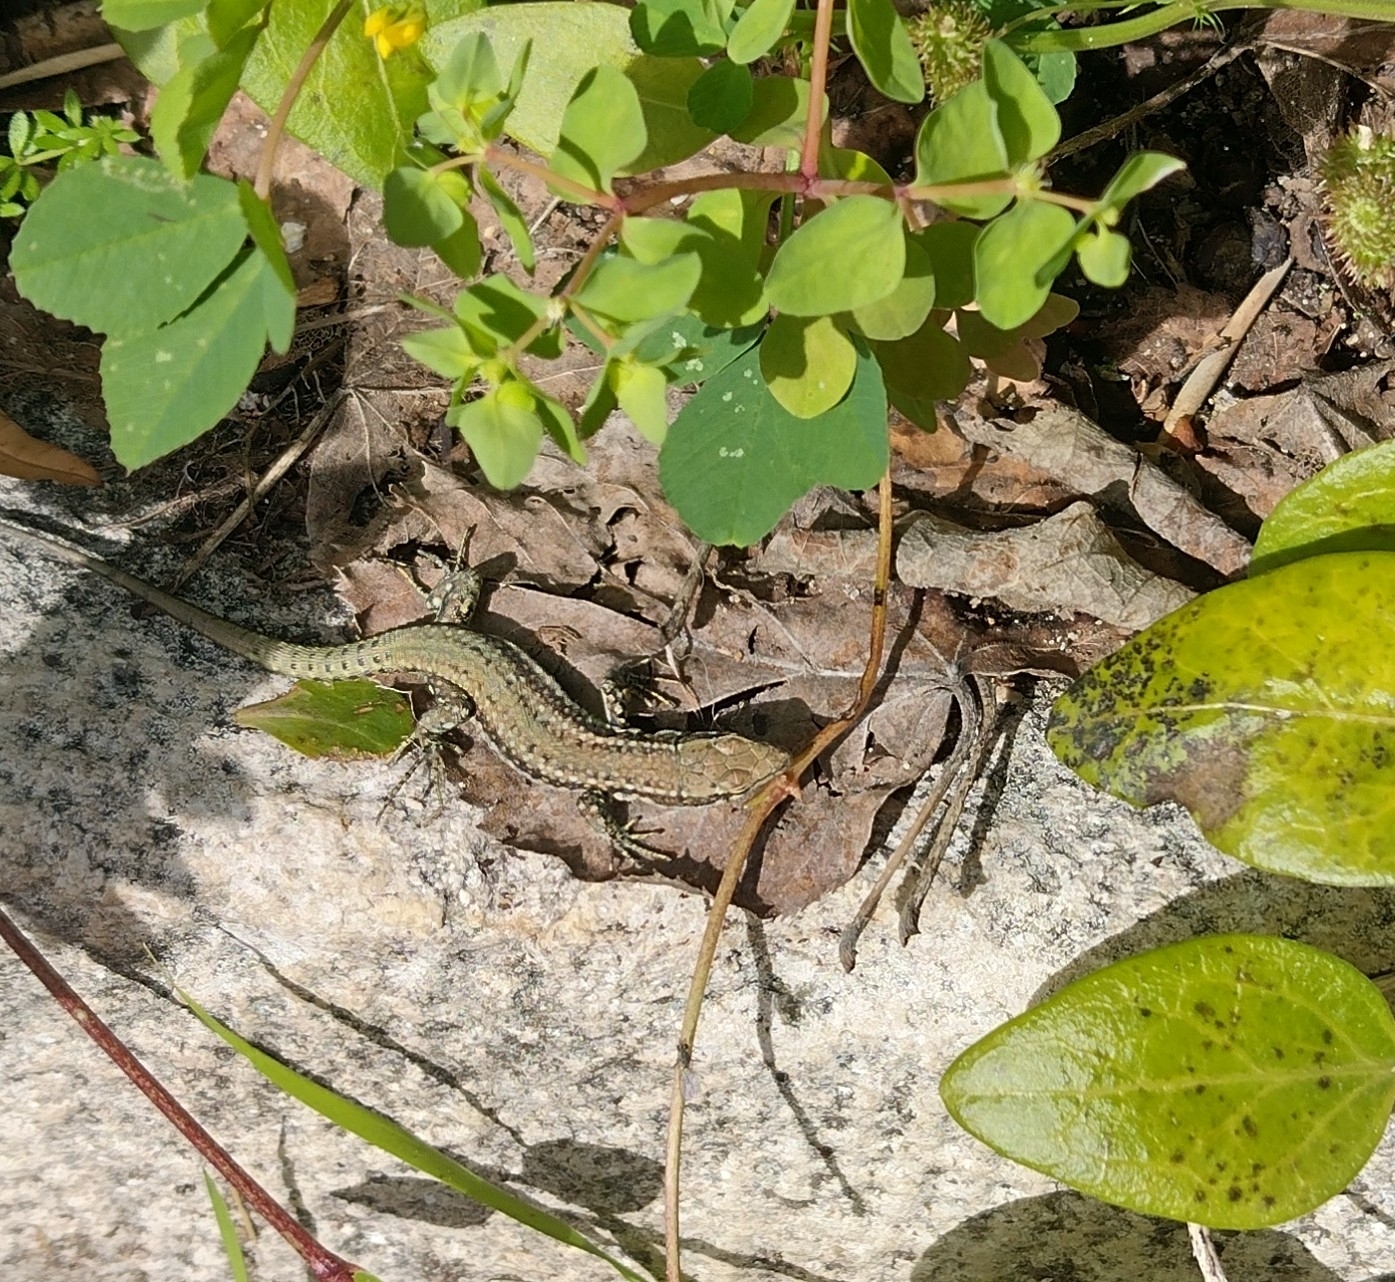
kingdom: Animalia
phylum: Chordata
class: Squamata
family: Lacertidae
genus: Podarcis
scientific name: Podarcis virescens
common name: Geniez’s wall lizard
